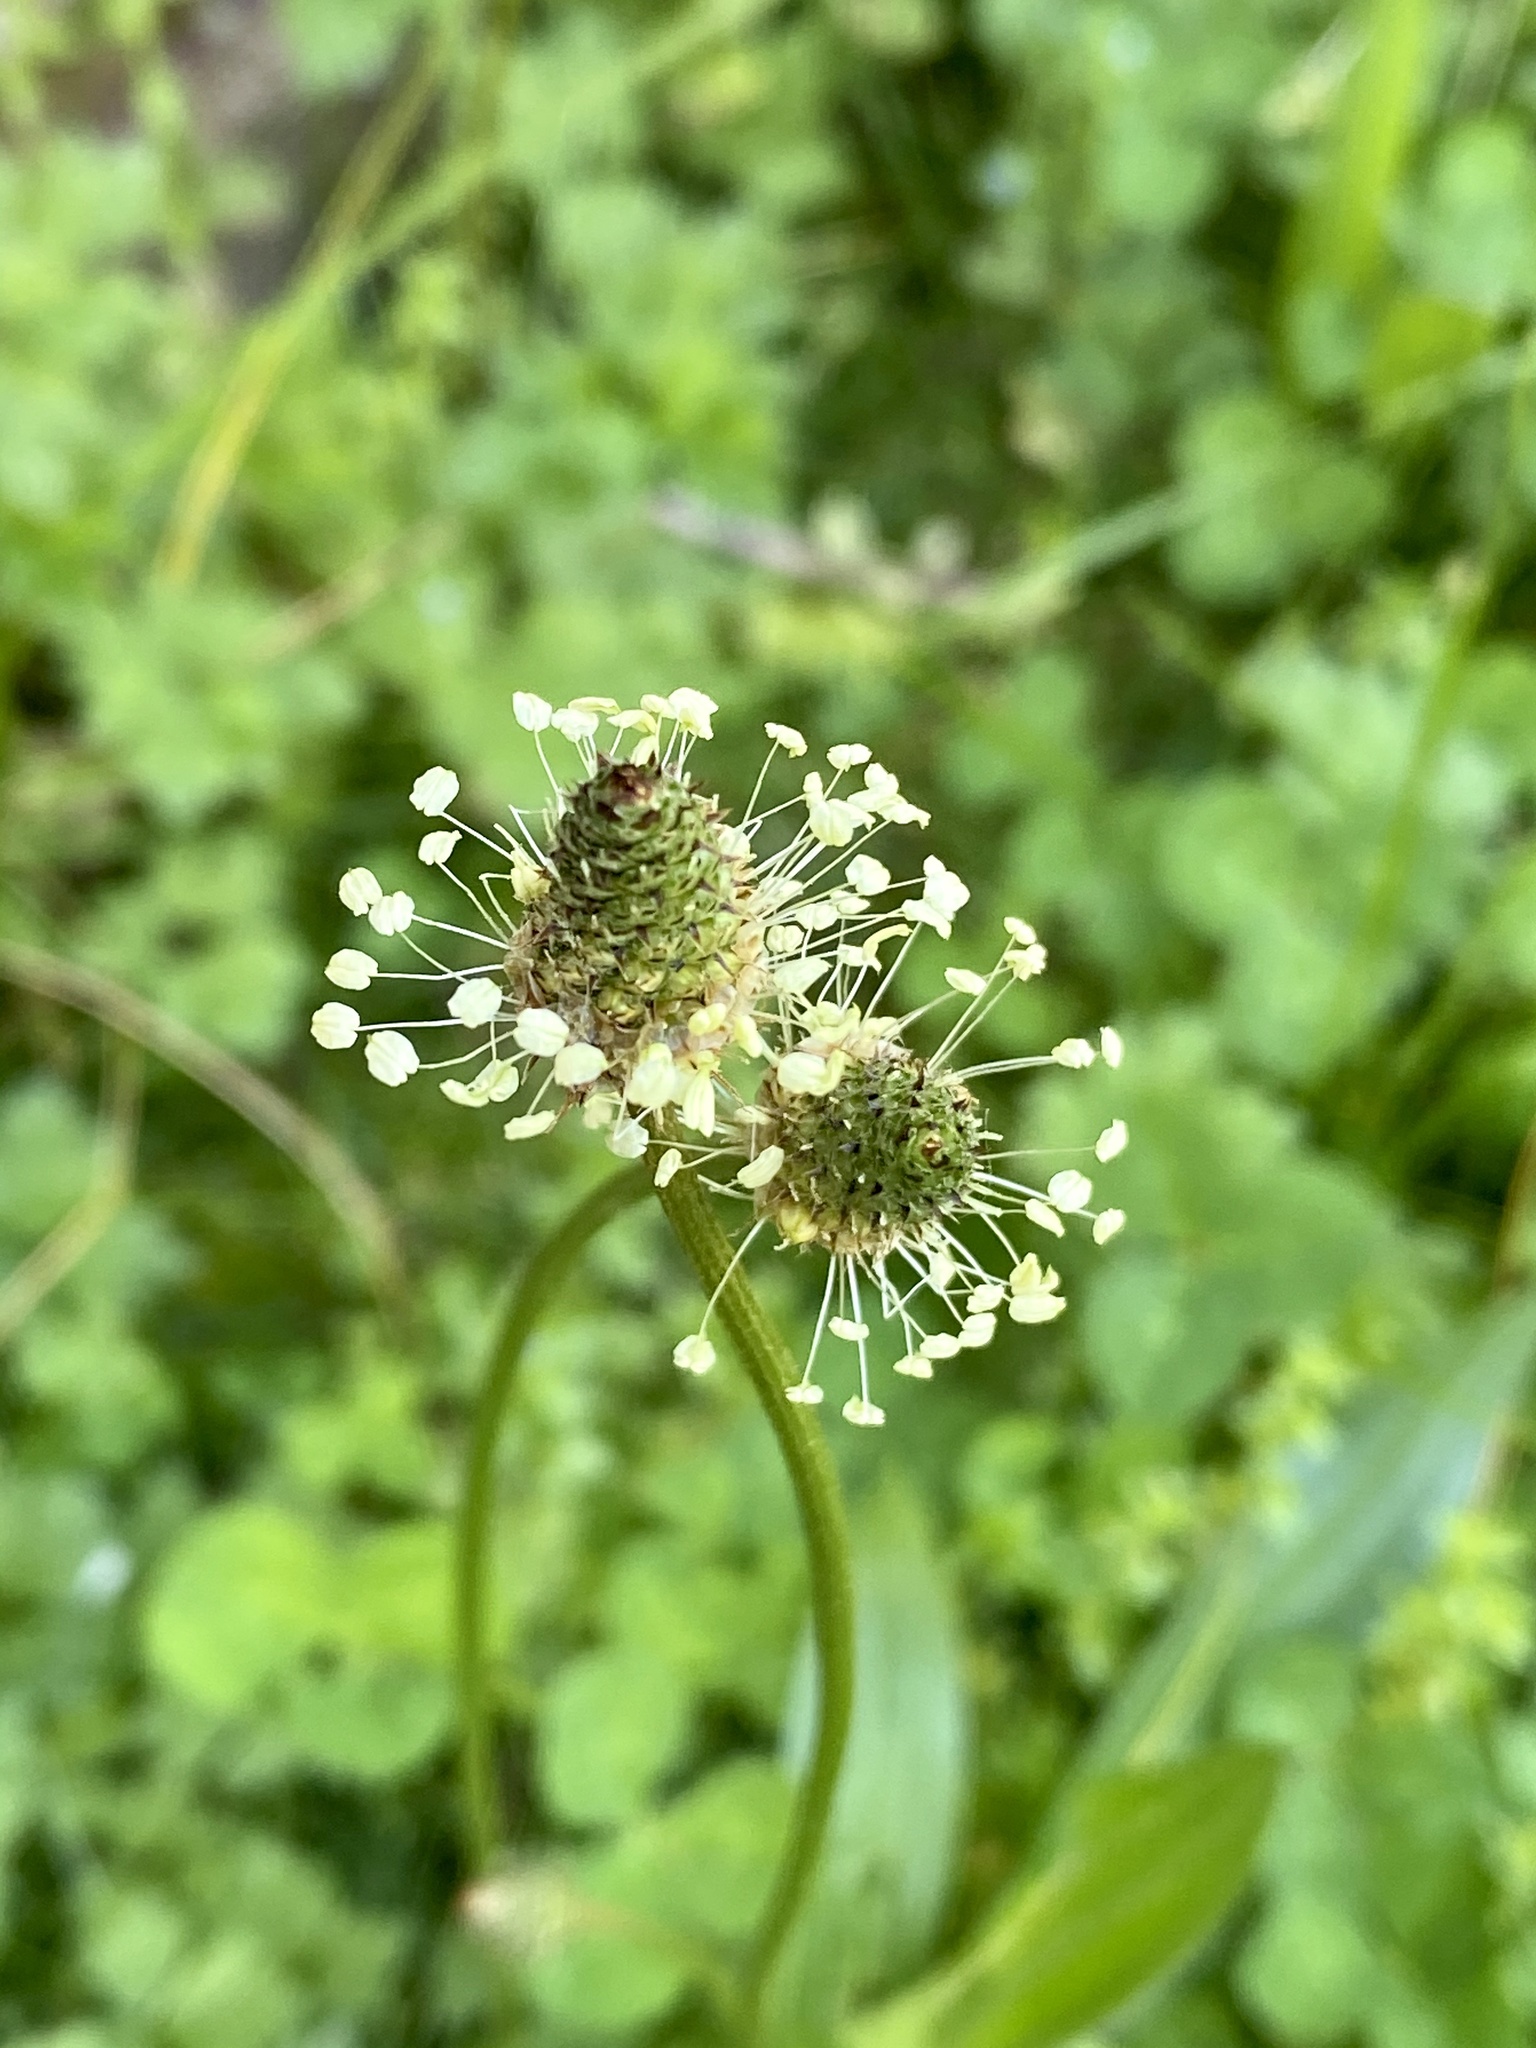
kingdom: Plantae
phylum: Tracheophyta
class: Magnoliopsida
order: Lamiales
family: Plantaginaceae
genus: Plantago
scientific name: Plantago lanceolata
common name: Ribwort plantain
